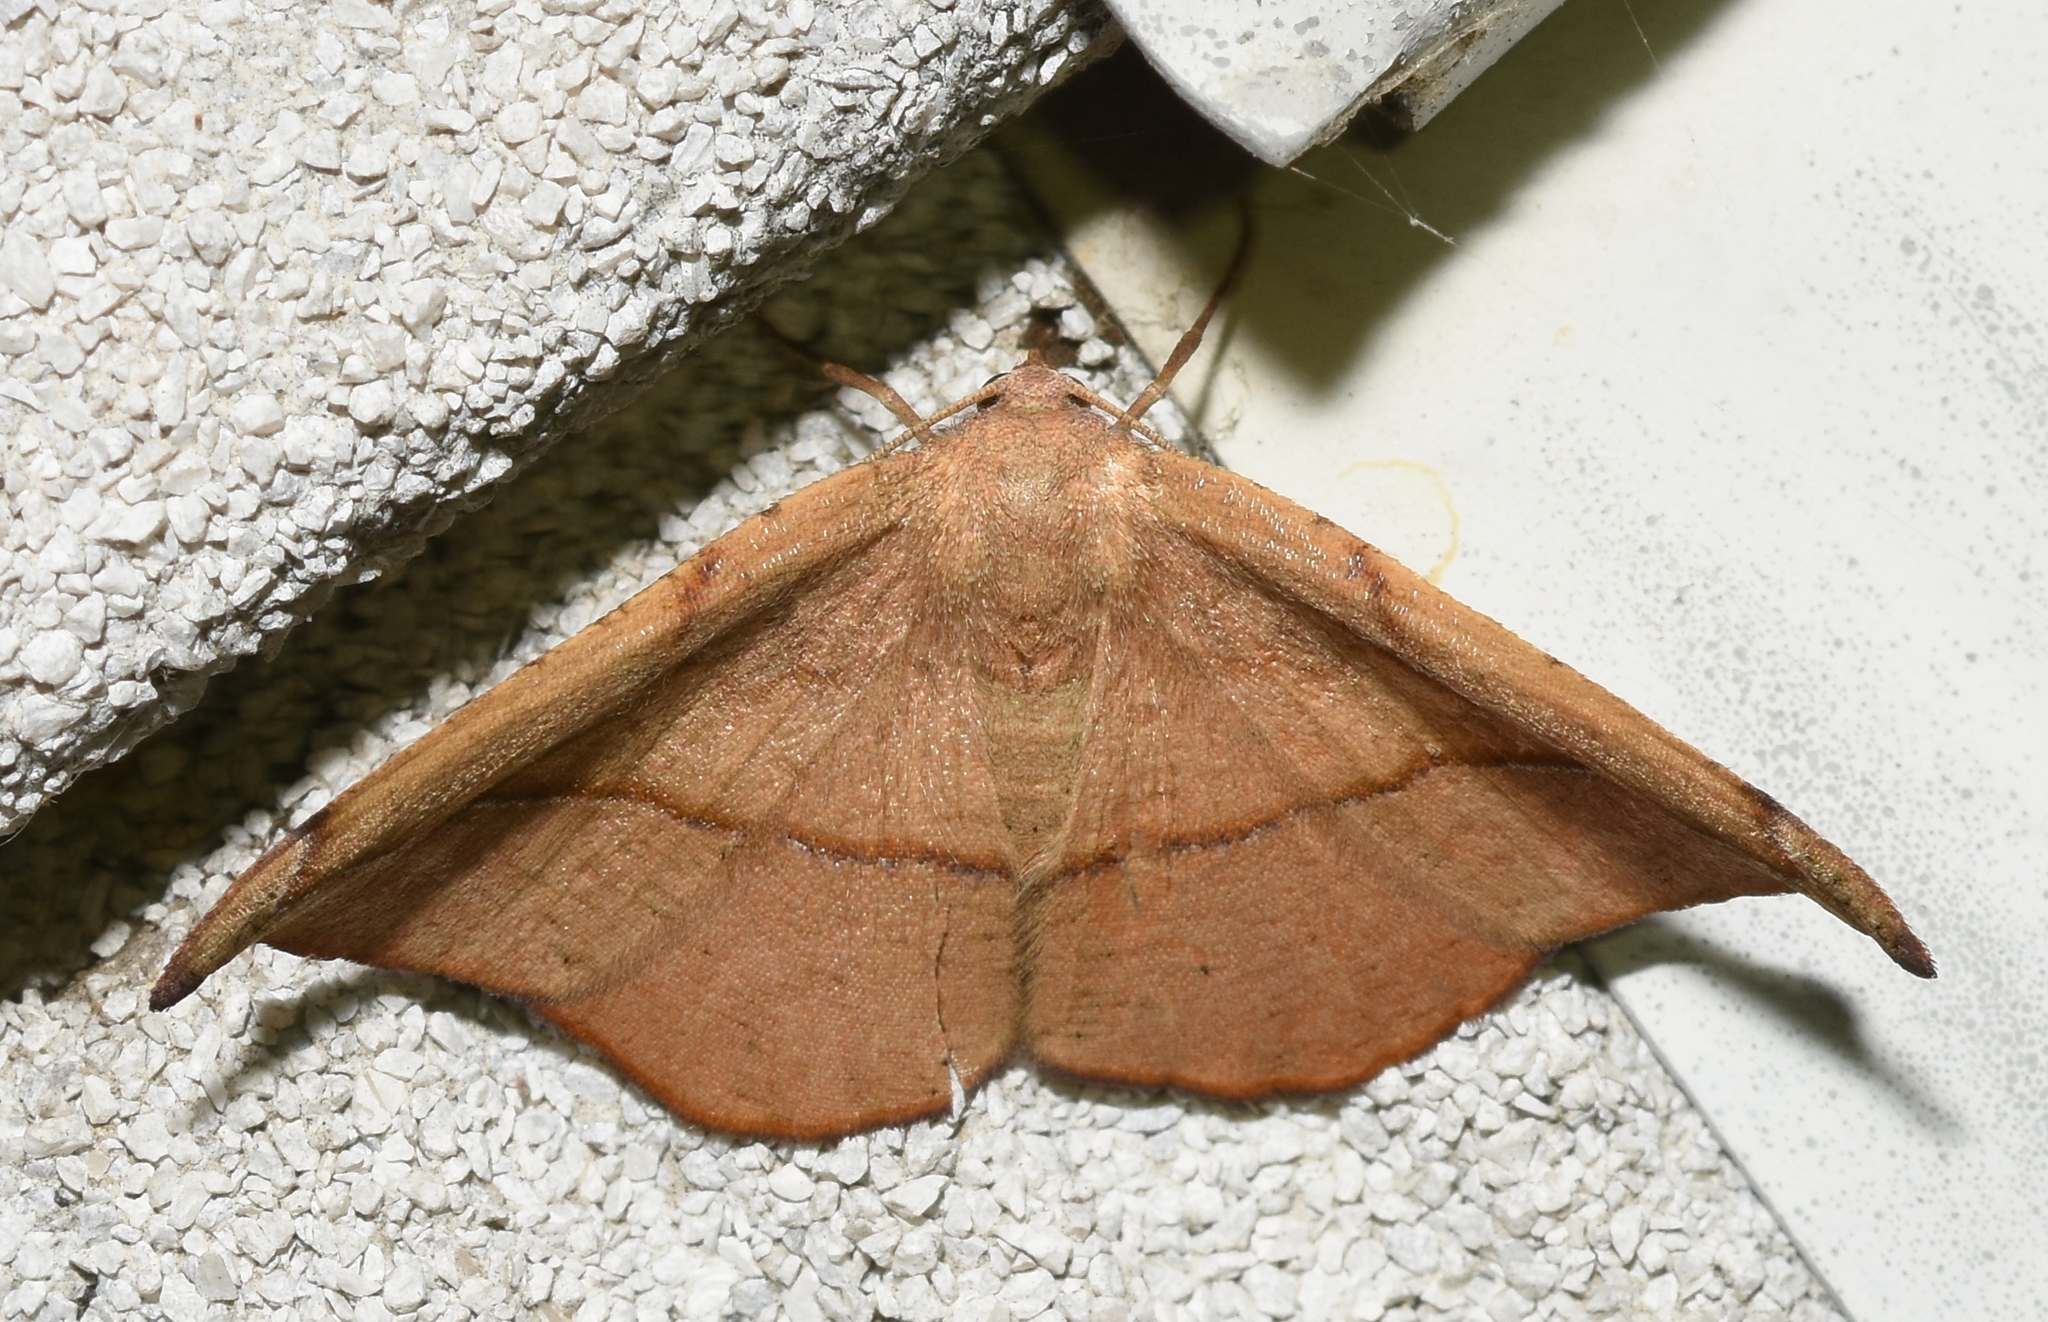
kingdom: Animalia
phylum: Arthropoda
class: Insecta
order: Lepidoptera
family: Geometridae
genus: Patalene
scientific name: Patalene olyzonaria
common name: Juniper geometer moth
